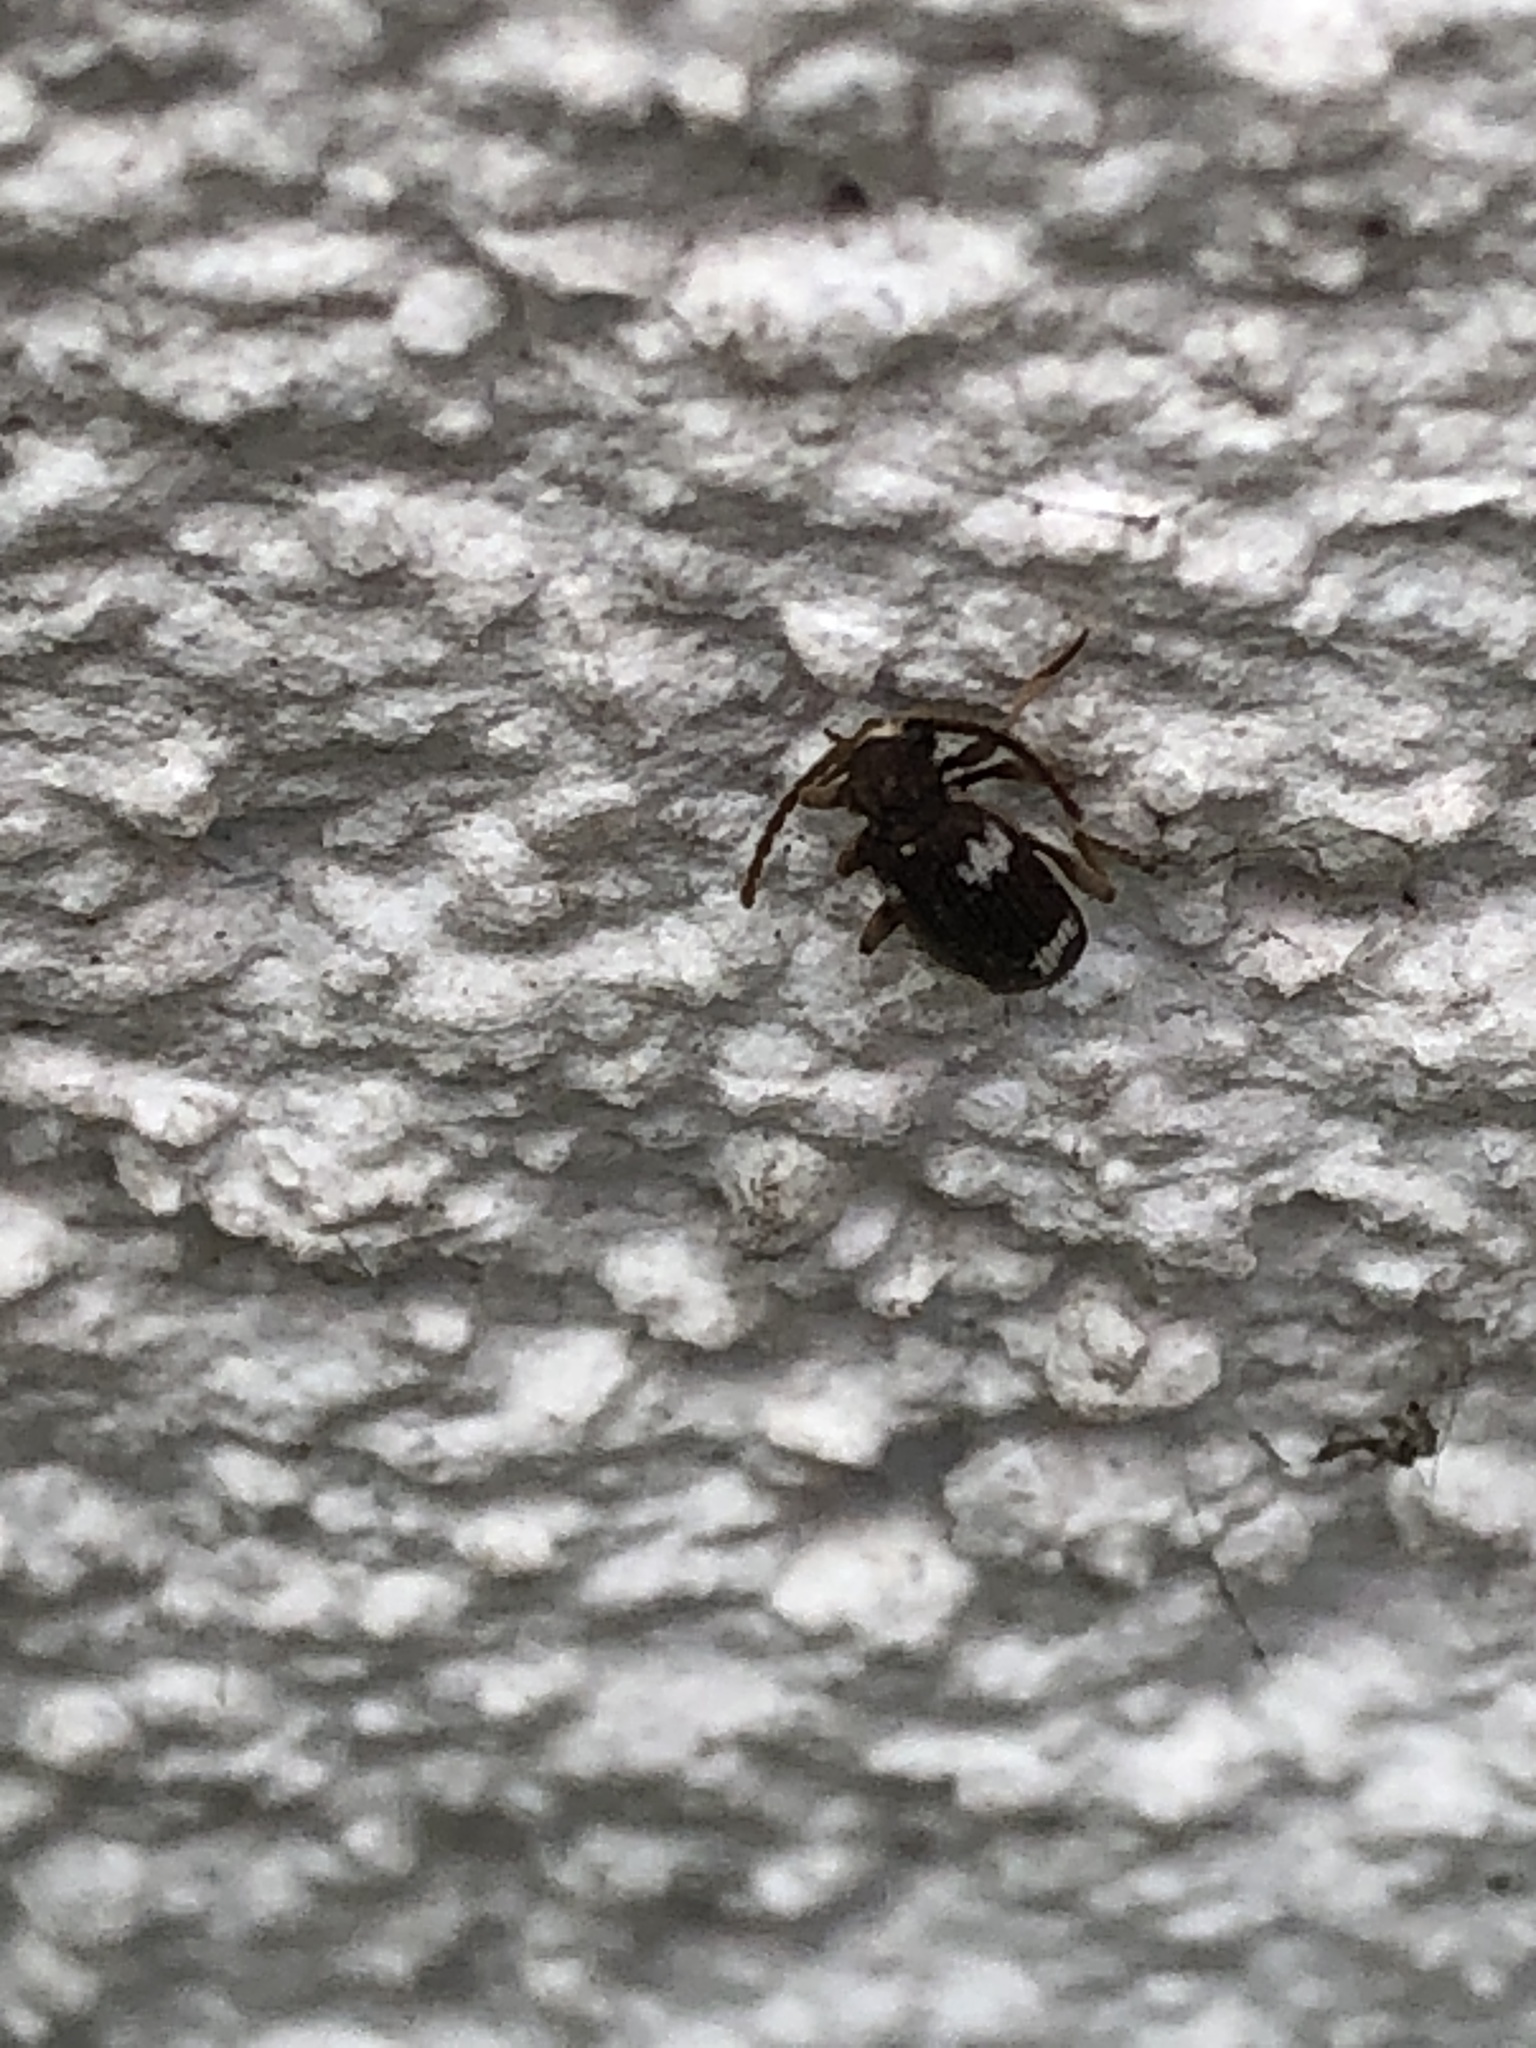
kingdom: Animalia
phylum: Arthropoda
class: Insecta
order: Coleoptera
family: Ptinidae
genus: Ptinus
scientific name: Ptinus sexpunctatus
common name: Six-spotted spider beetle
